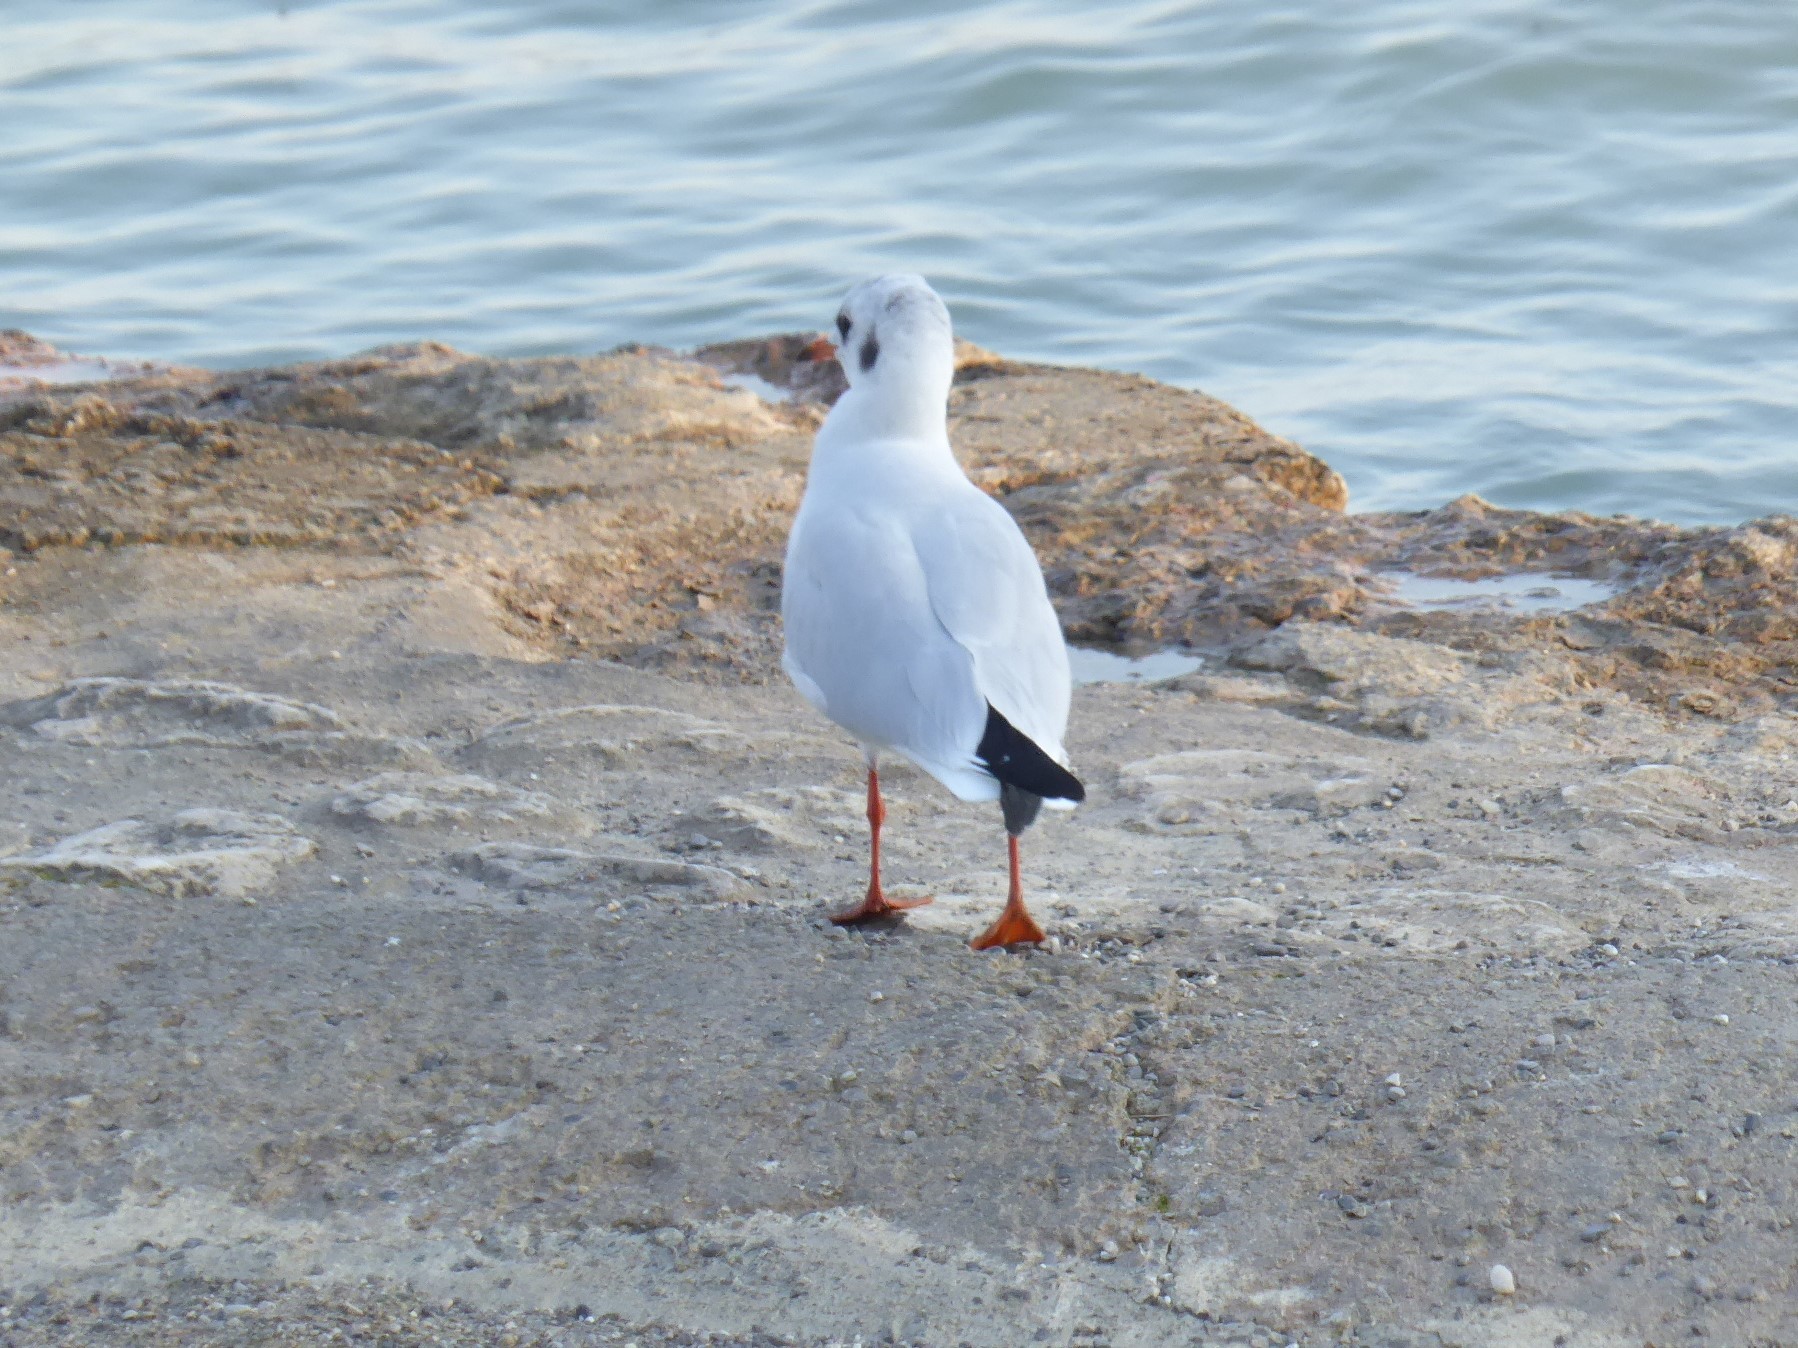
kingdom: Animalia
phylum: Chordata
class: Aves
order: Charadriiformes
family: Laridae
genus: Chroicocephalus
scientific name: Chroicocephalus ridibundus
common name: Black-headed gull
